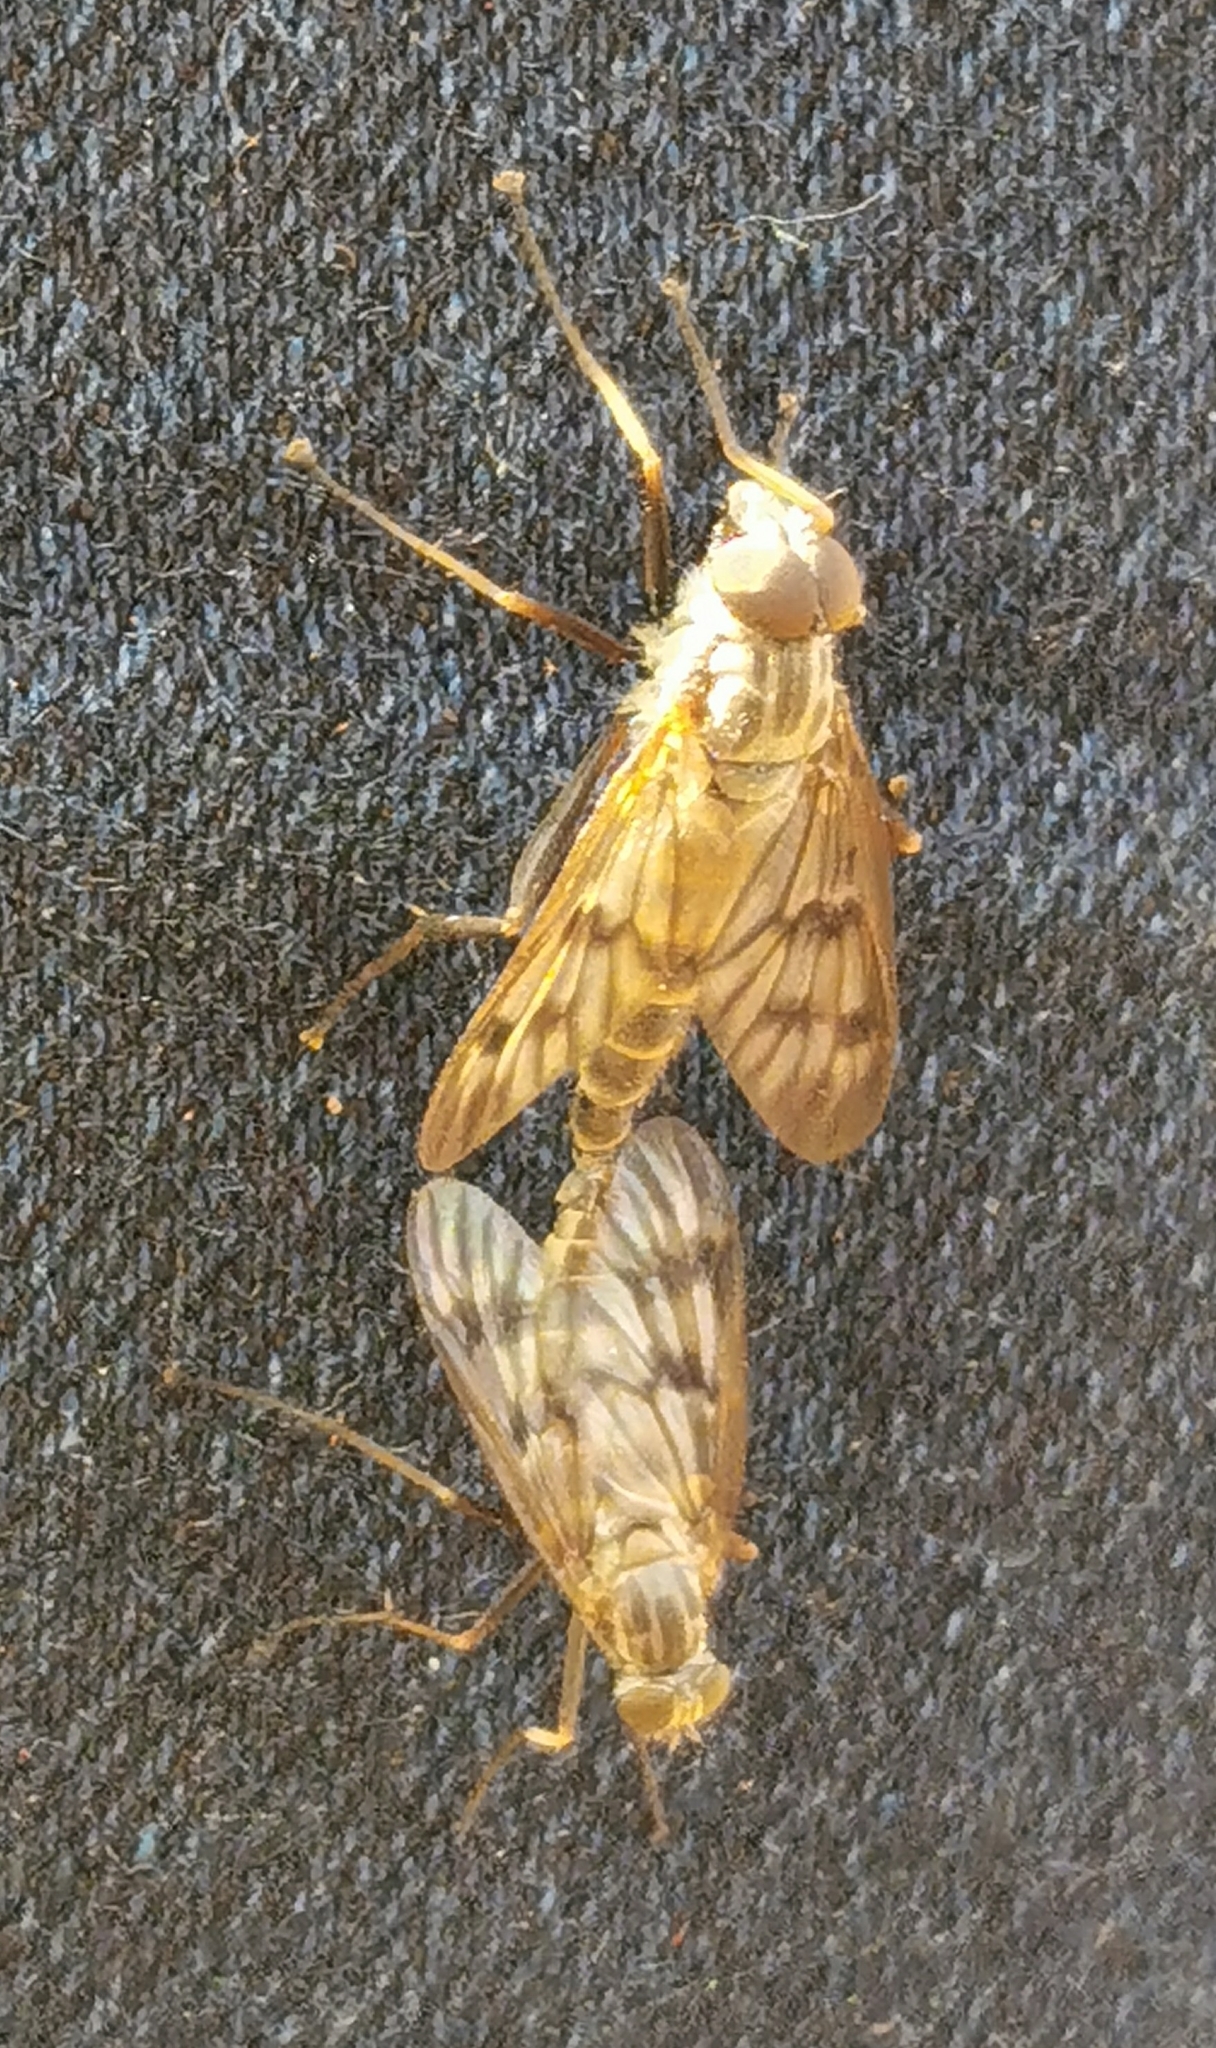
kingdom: Animalia
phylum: Arthropoda
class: Insecta
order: Diptera
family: Rhagionidae
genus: Rhagio
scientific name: Rhagio mystaceus
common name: Common snipe fly
